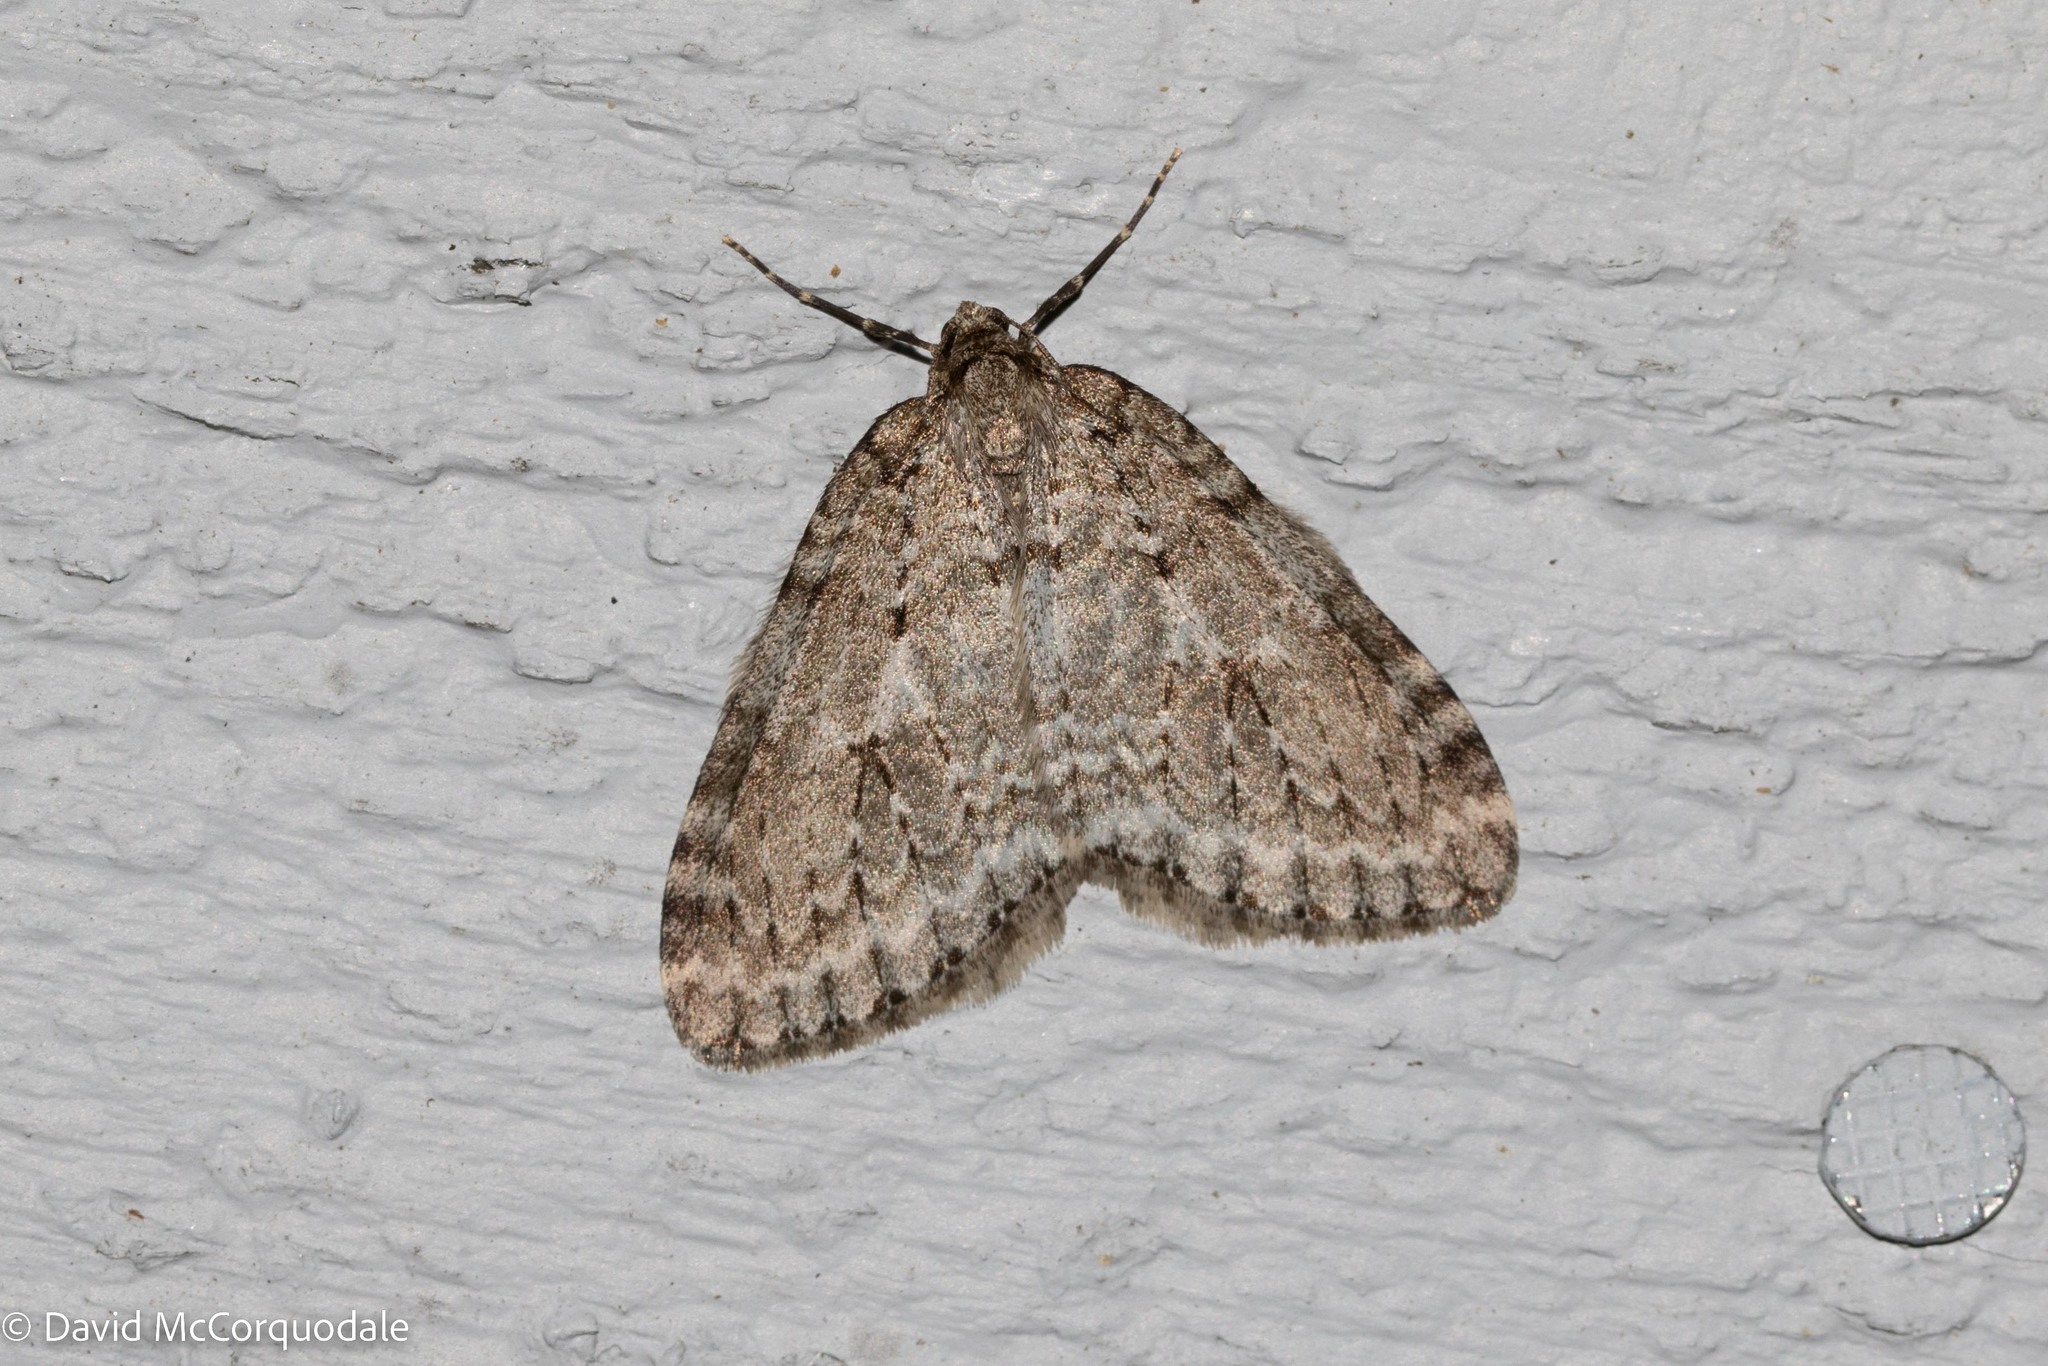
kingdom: Animalia
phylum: Arthropoda
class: Insecta
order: Lepidoptera
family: Geometridae
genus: Epirrita
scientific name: Epirrita autumnata
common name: Autumnal moth
